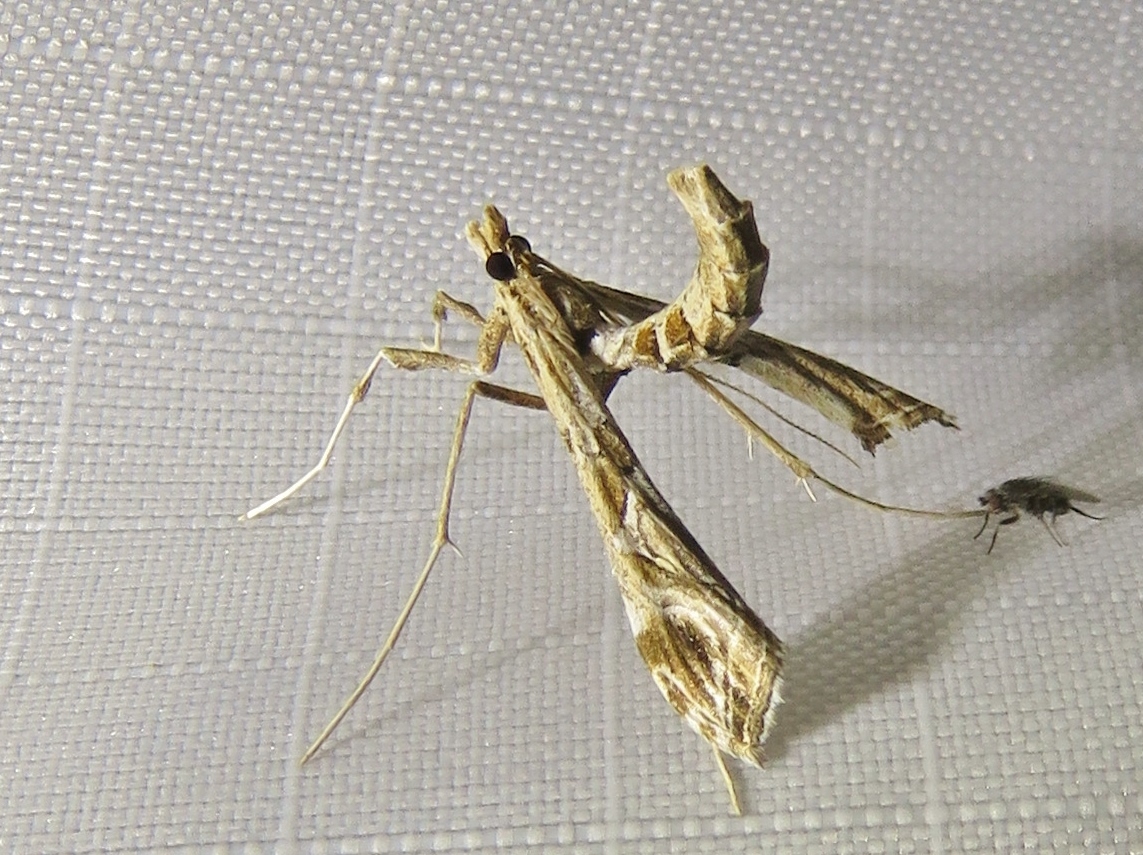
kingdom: Animalia
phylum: Arthropoda
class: Insecta
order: Lepidoptera
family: Crambidae
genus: Lineodes
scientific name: Lineodes interrupta
